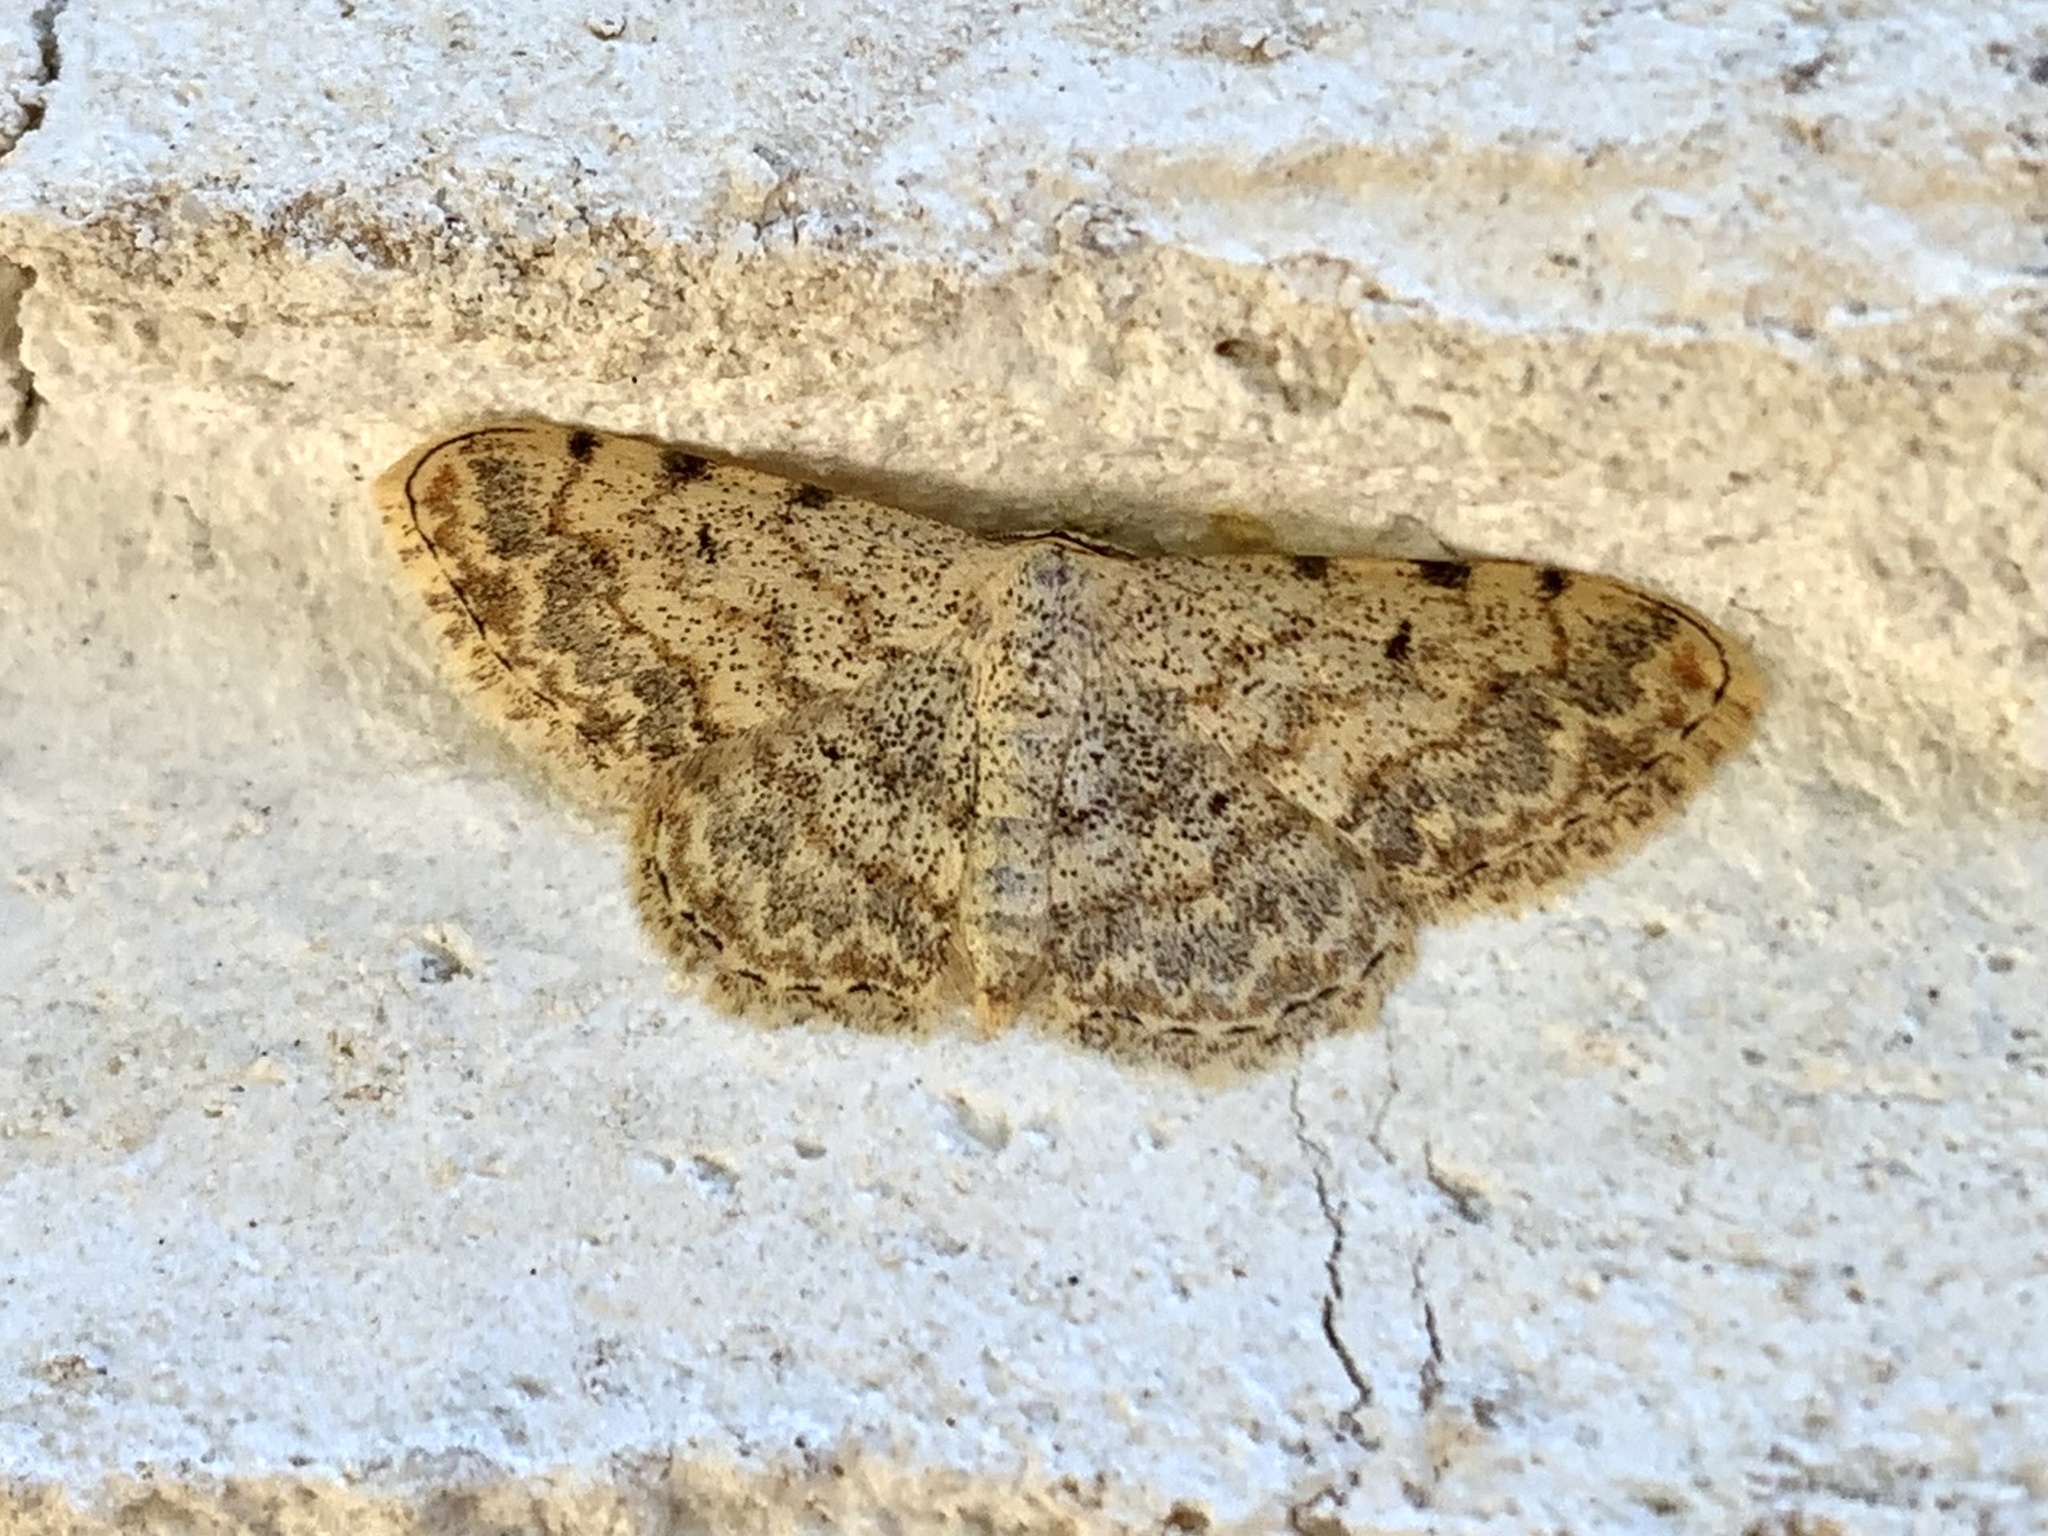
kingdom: Animalia
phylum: Arthropoda
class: Insecta
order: Lepidoptera
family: Geometridae
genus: Scopula
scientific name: Scopula submutata
